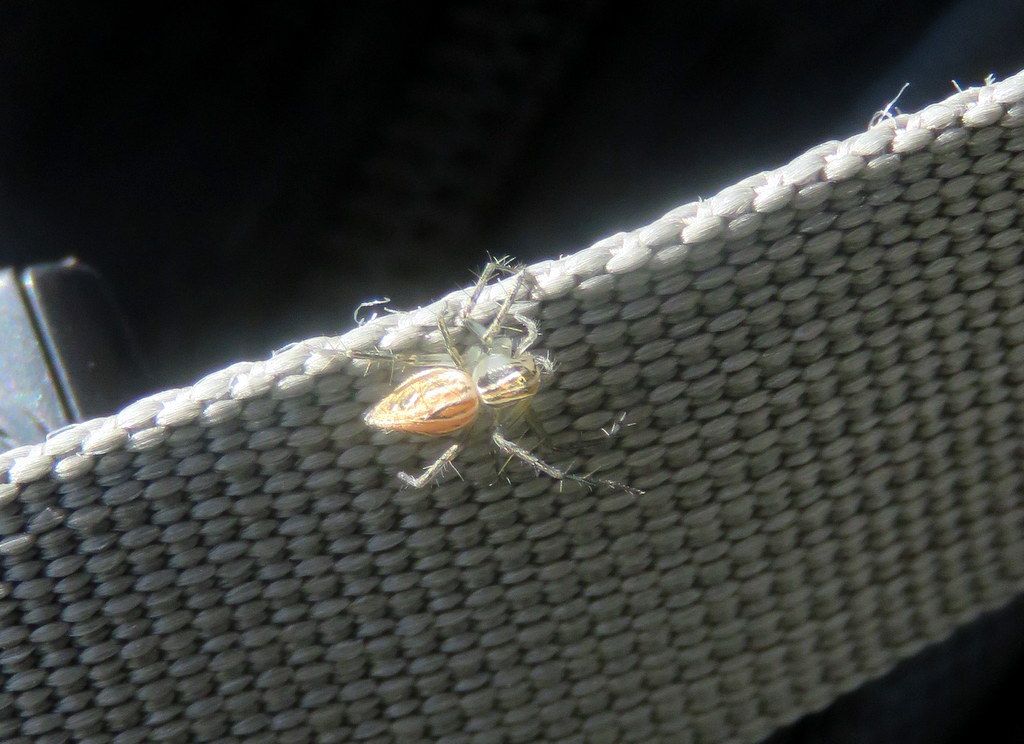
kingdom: Animalia
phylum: Arthropoda
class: Arachnida
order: Araneae
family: Oxyopidae
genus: Oxyopes
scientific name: Oxyopes salticus
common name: Lynx spiders
